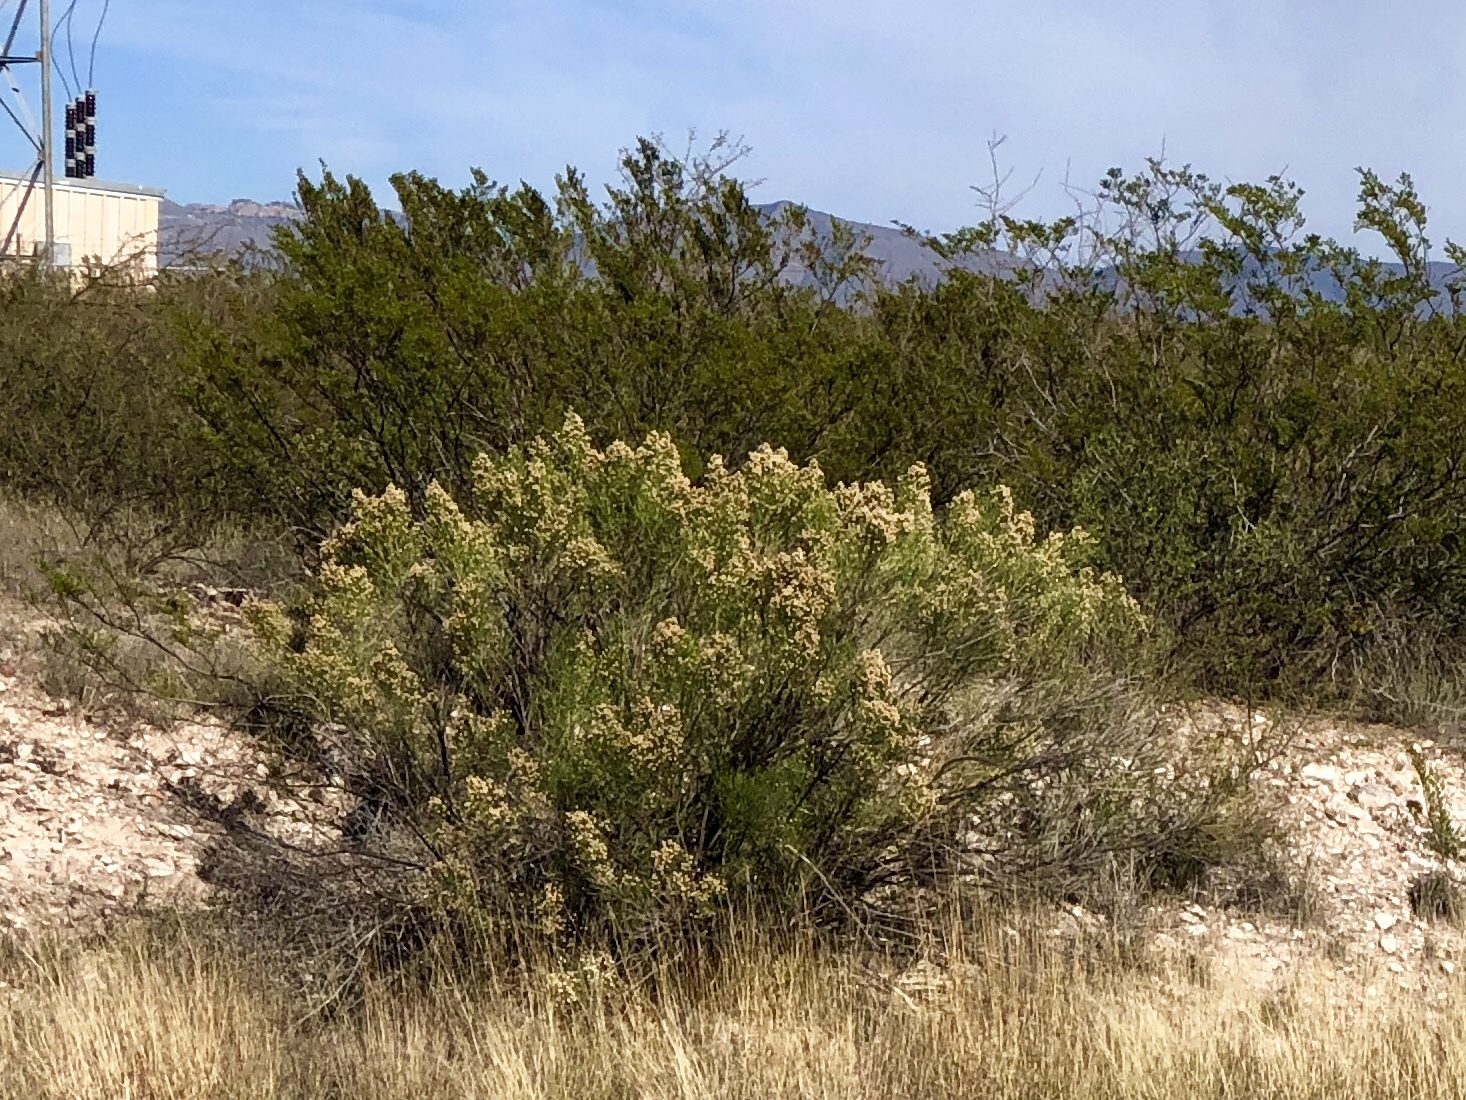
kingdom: Plantae
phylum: Tracheophyta
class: Magnoliopsida
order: Asterales
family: Asteraceae
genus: Baccharis
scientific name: Baccharis sarothroides
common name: Desert-broom
